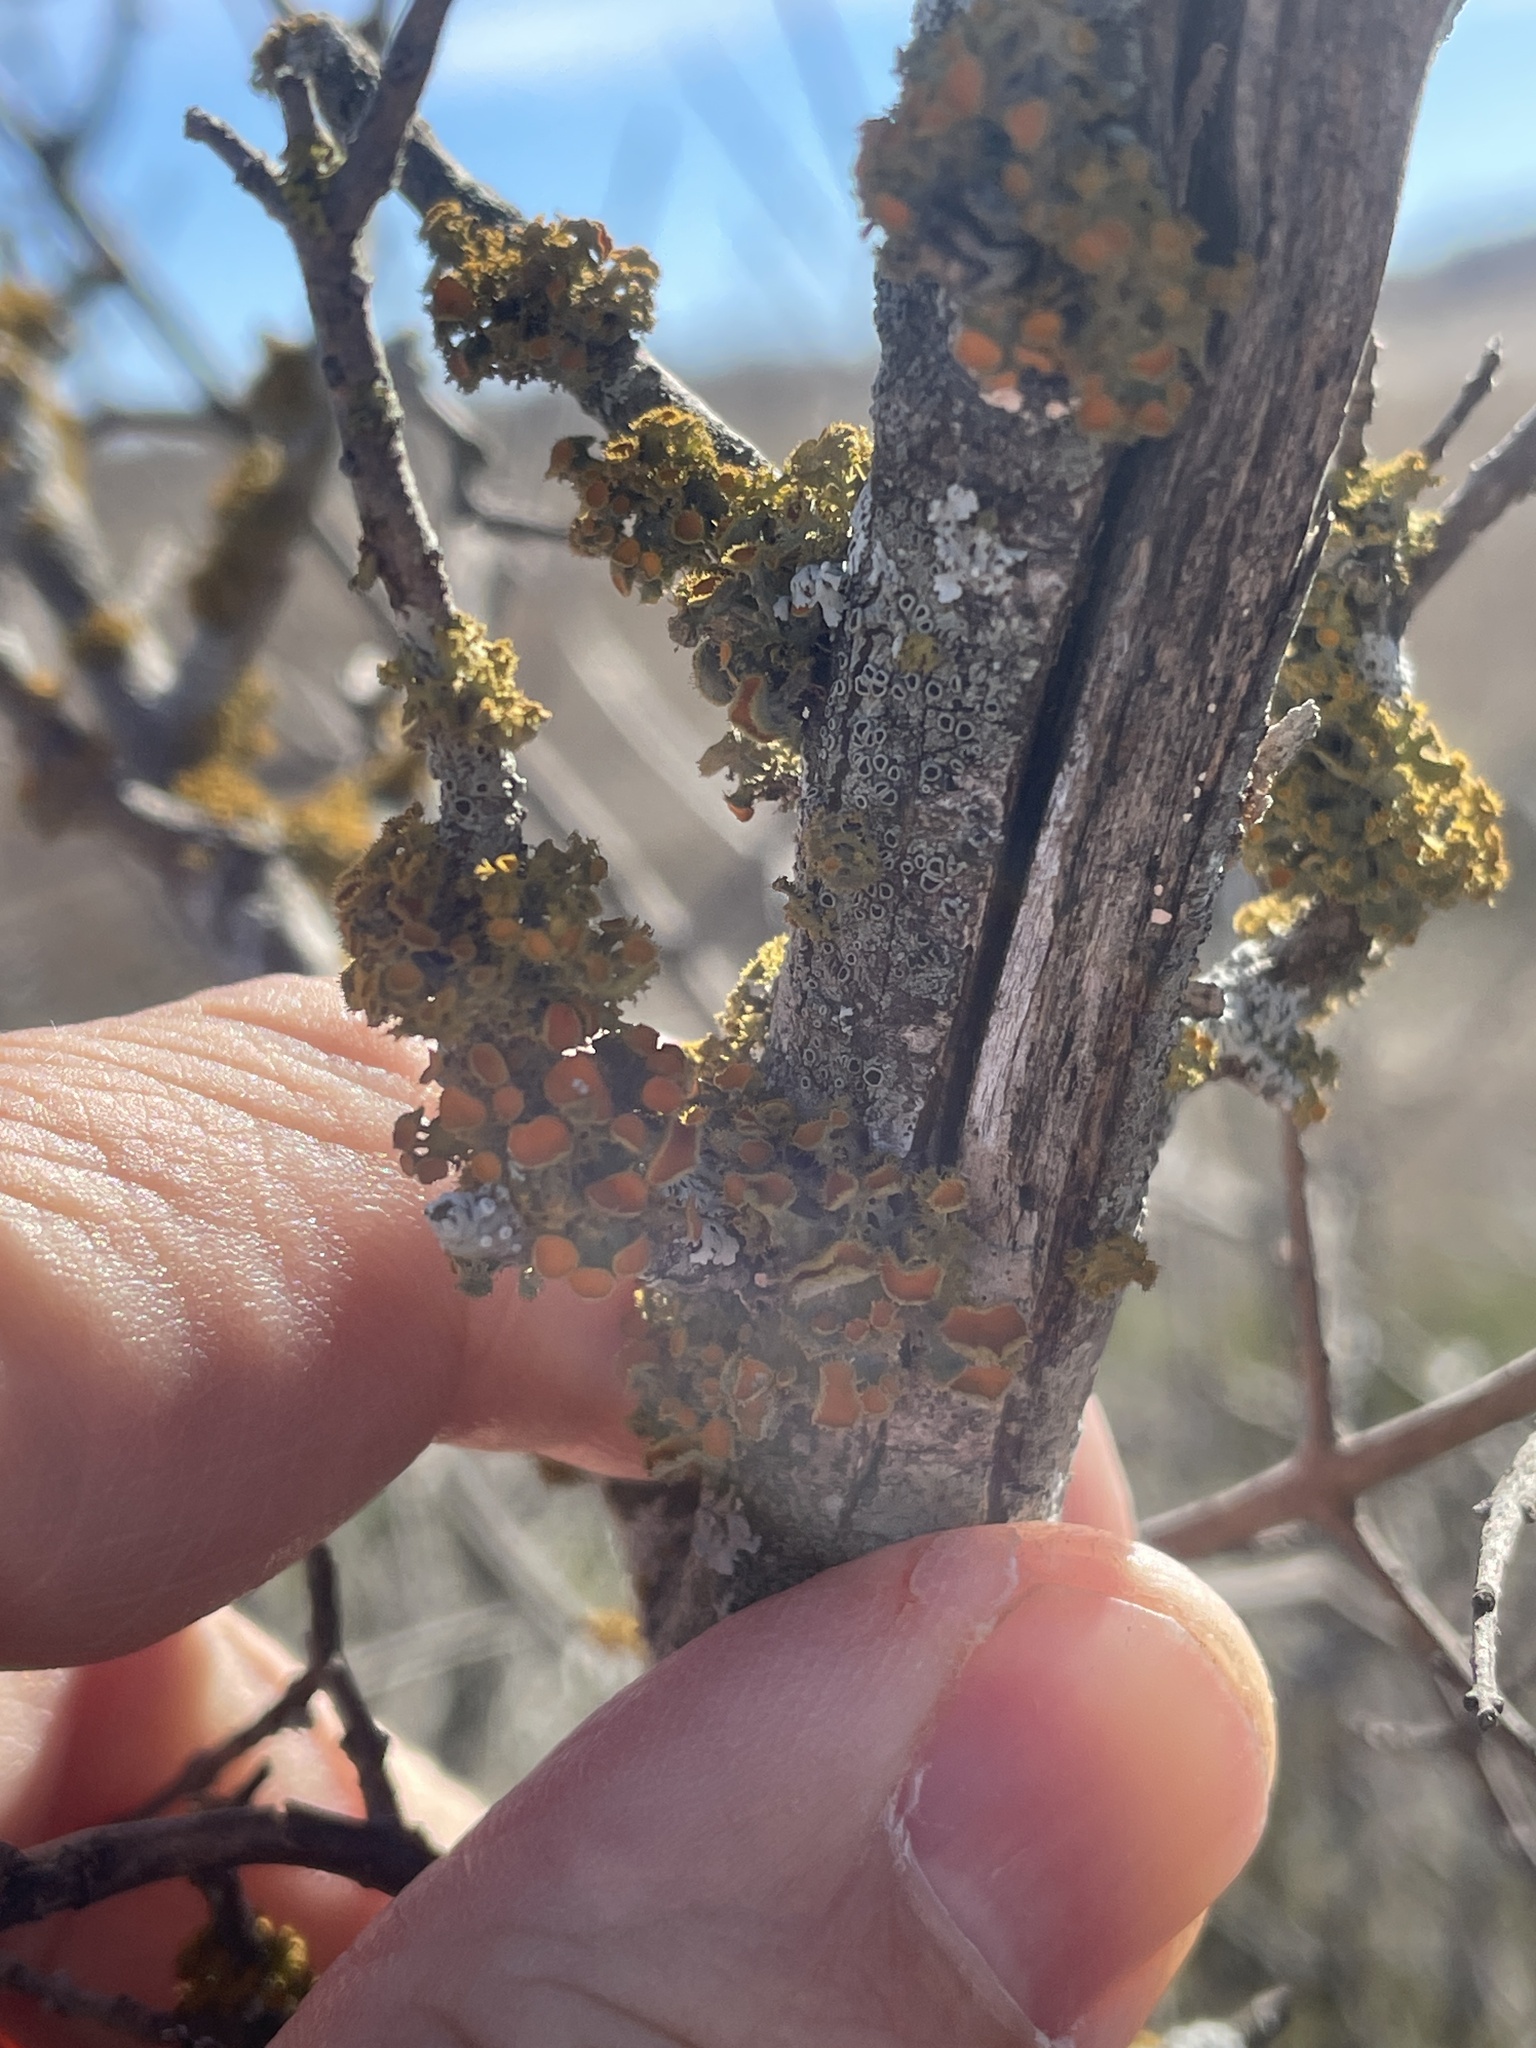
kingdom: Fungi
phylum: Ascomycota
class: Lecanoromycetes
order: Teloschistales
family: Teloschistaceae
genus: Niorma
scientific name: Niorma chrysophthalma
